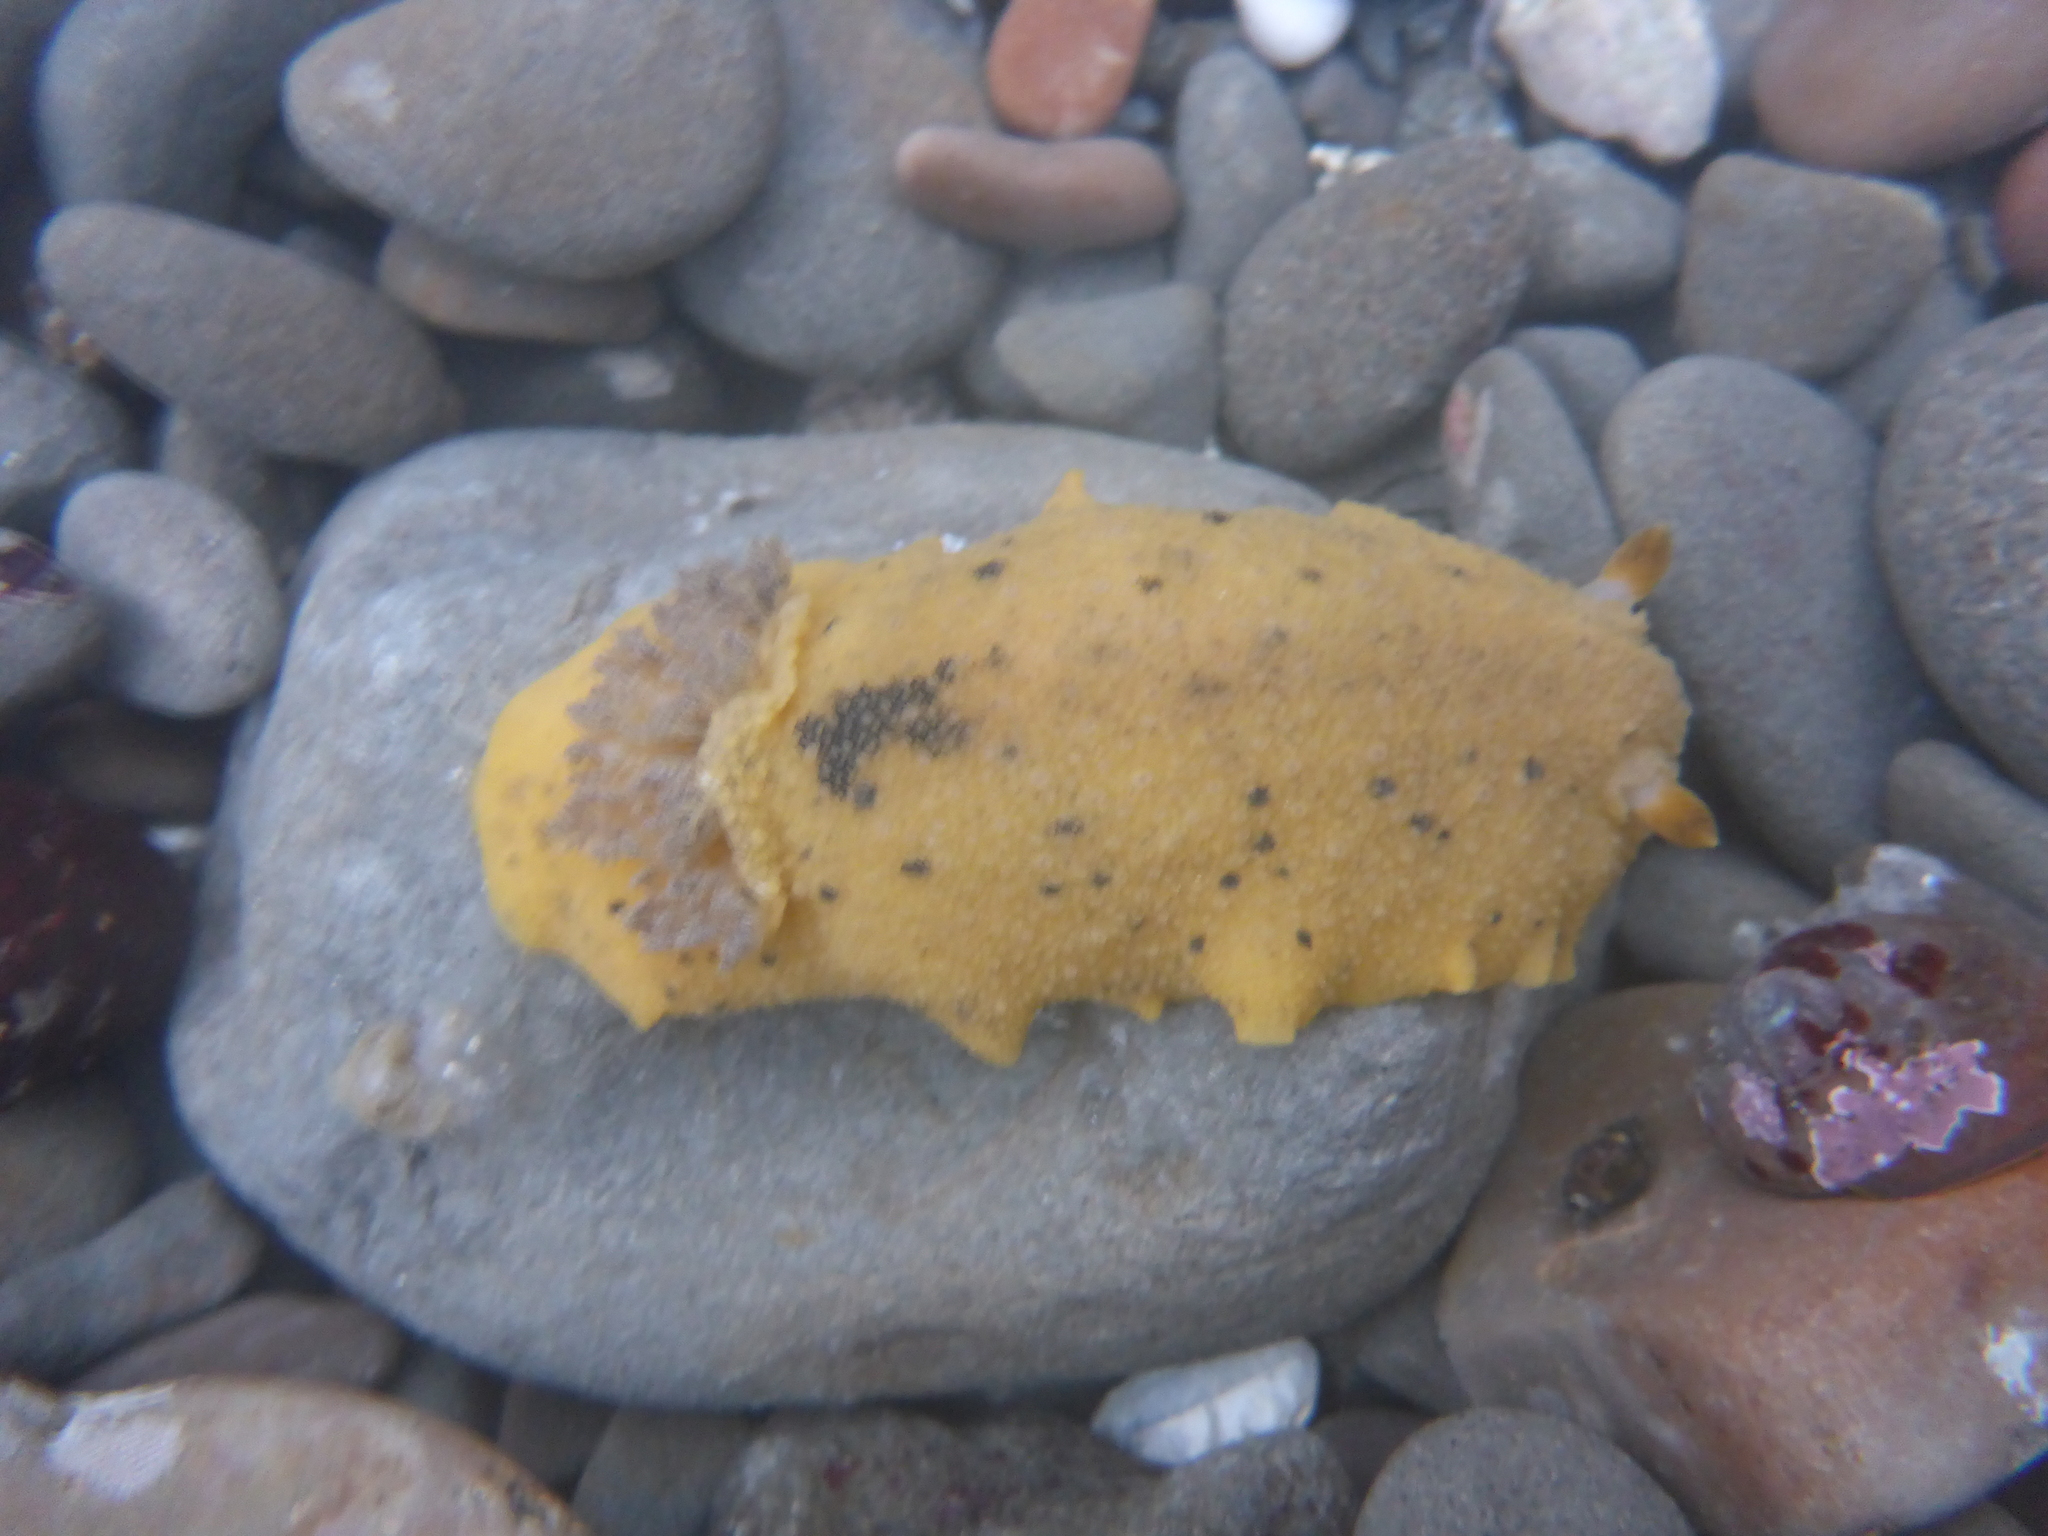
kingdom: Animalia
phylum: Mollusca
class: Gastropoda
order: Nudibranchia
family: Discodorididae
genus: Geitodoris
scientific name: Geitodoris heathi
